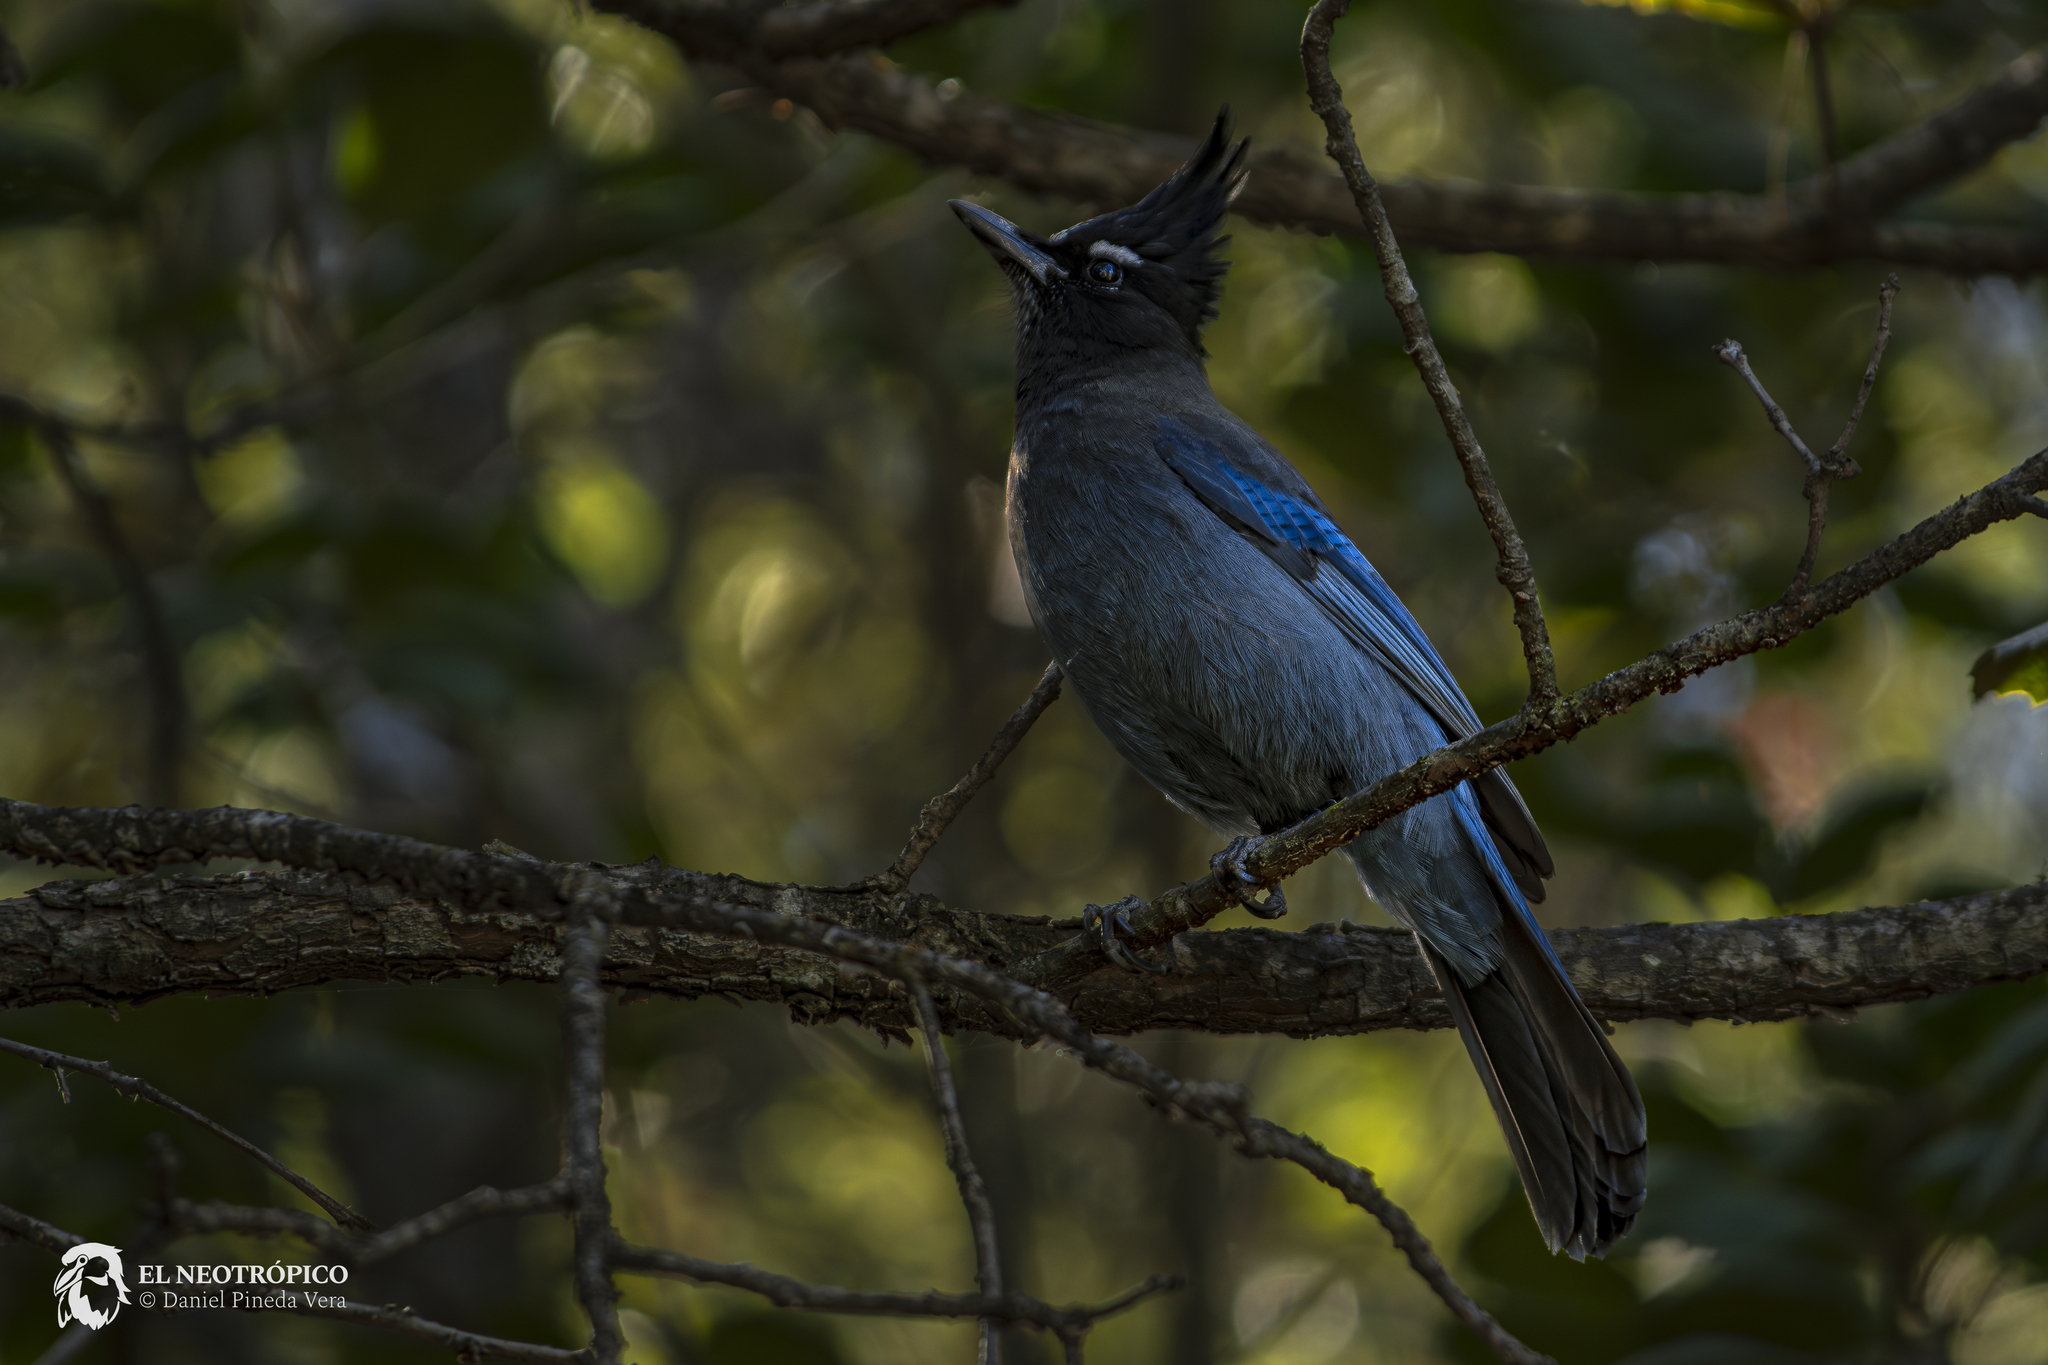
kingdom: Animalia
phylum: Chordata
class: Aves
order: Passeriformes
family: Corvidae
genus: Cyanocitta
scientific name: Cyanocitta stelleri
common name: Steller's jay
